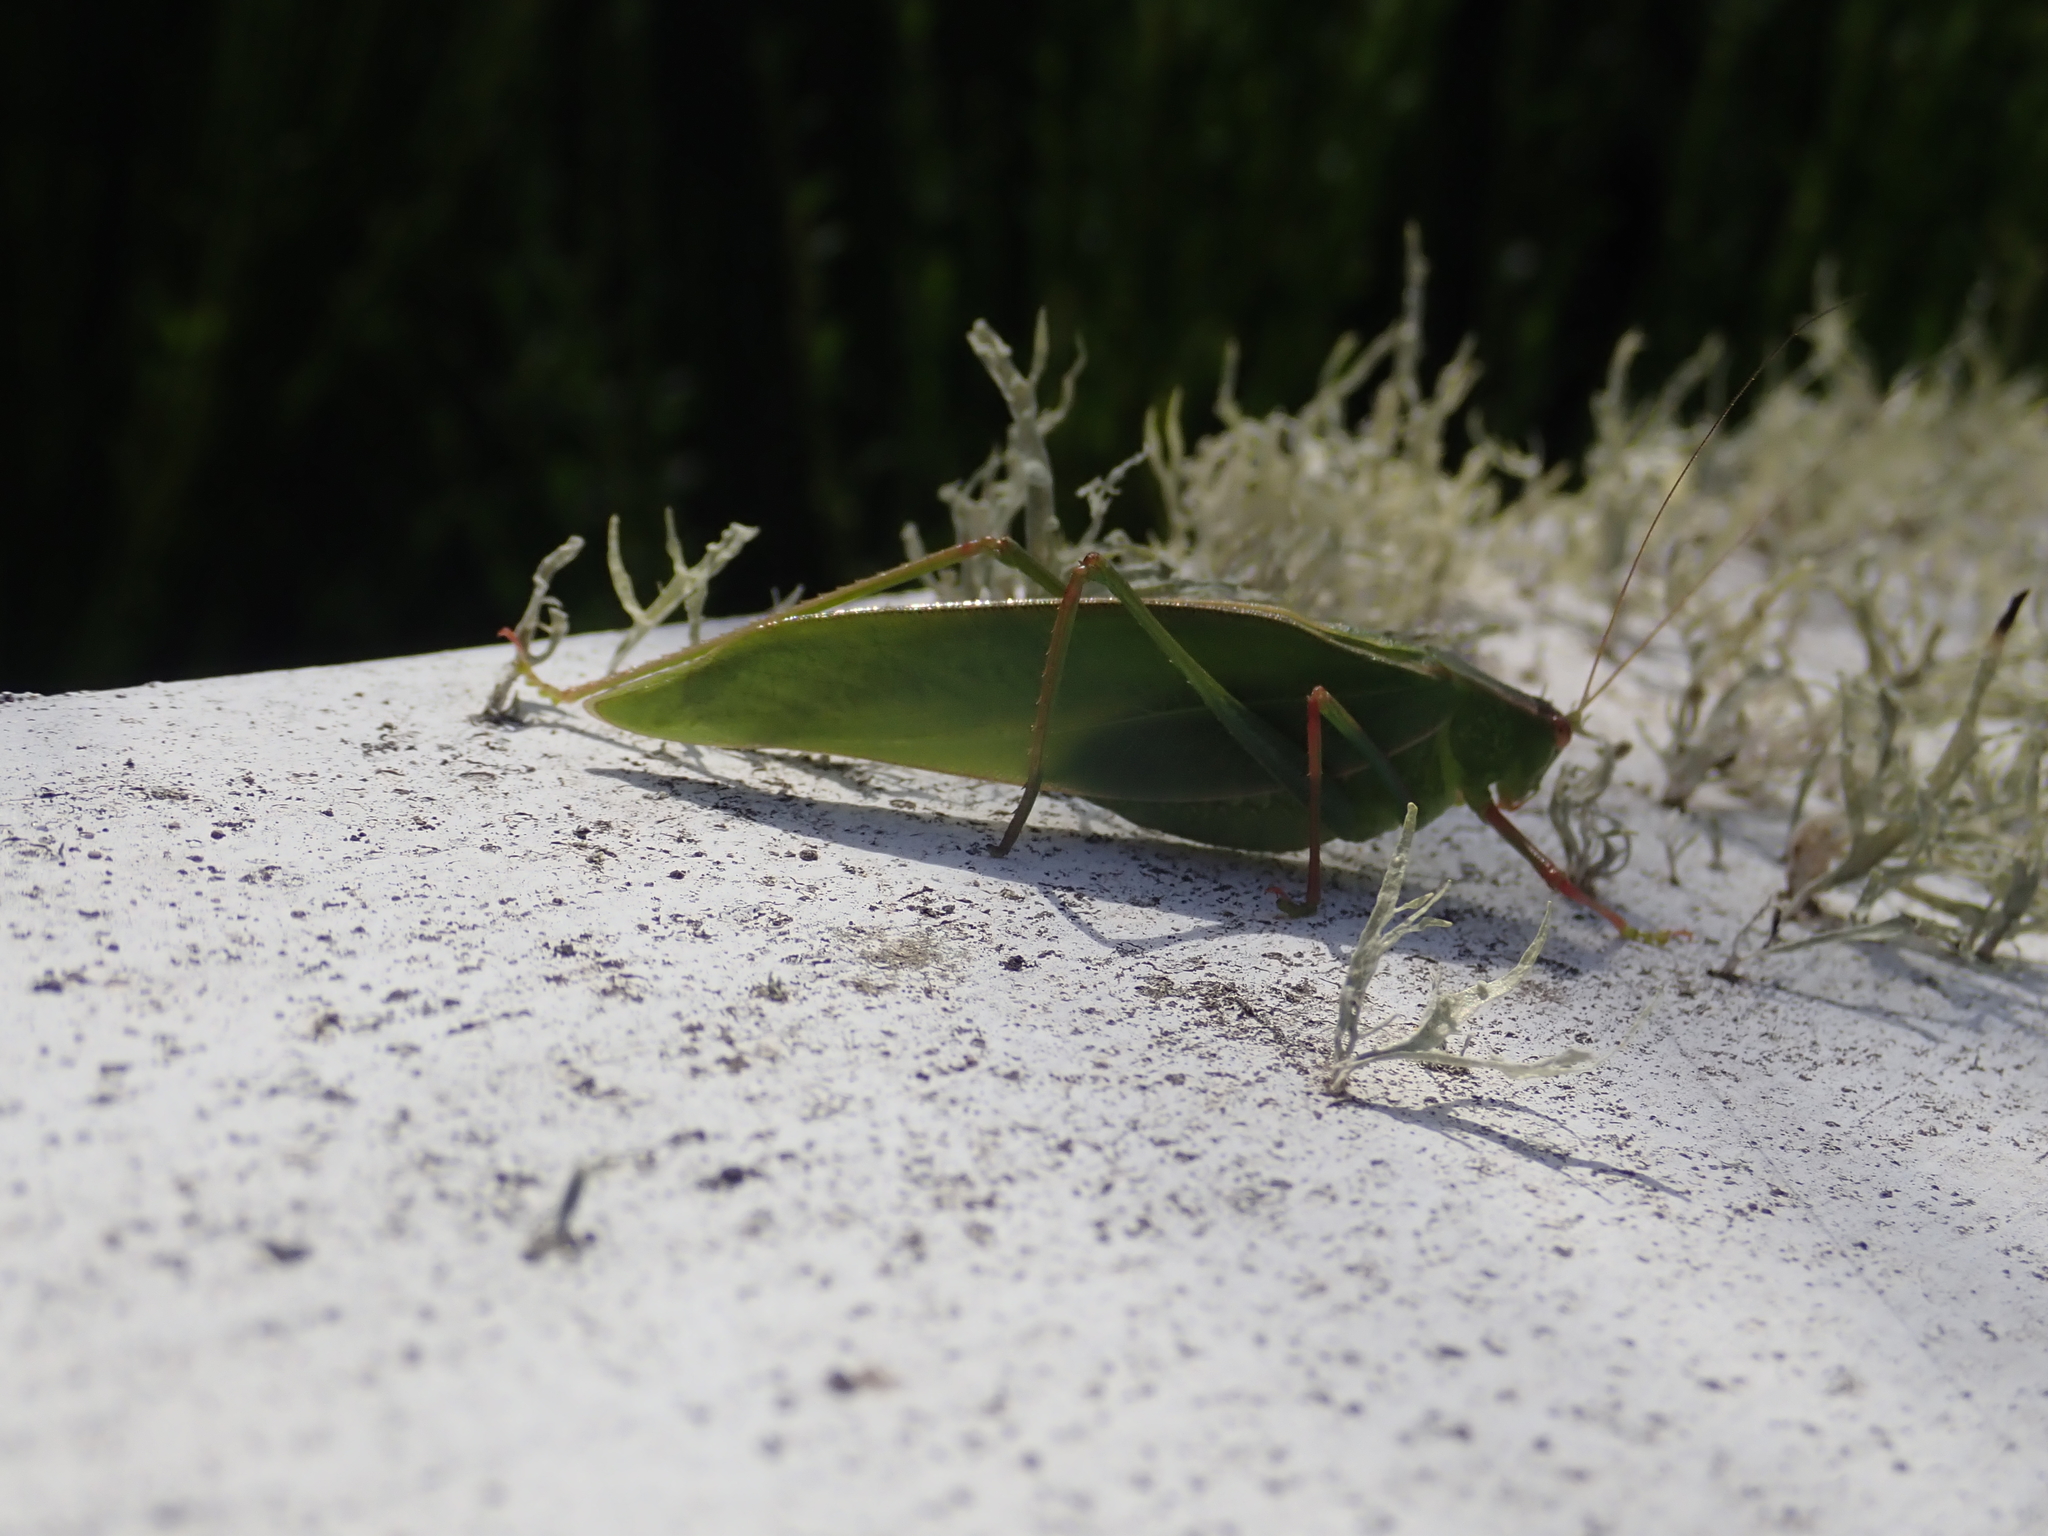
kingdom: Animalia
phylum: Arthropoda
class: Insecta
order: Orthoptera
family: Tettigoniidae
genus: Caedicia
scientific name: Caedicia simplex
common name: Common garden katydid
